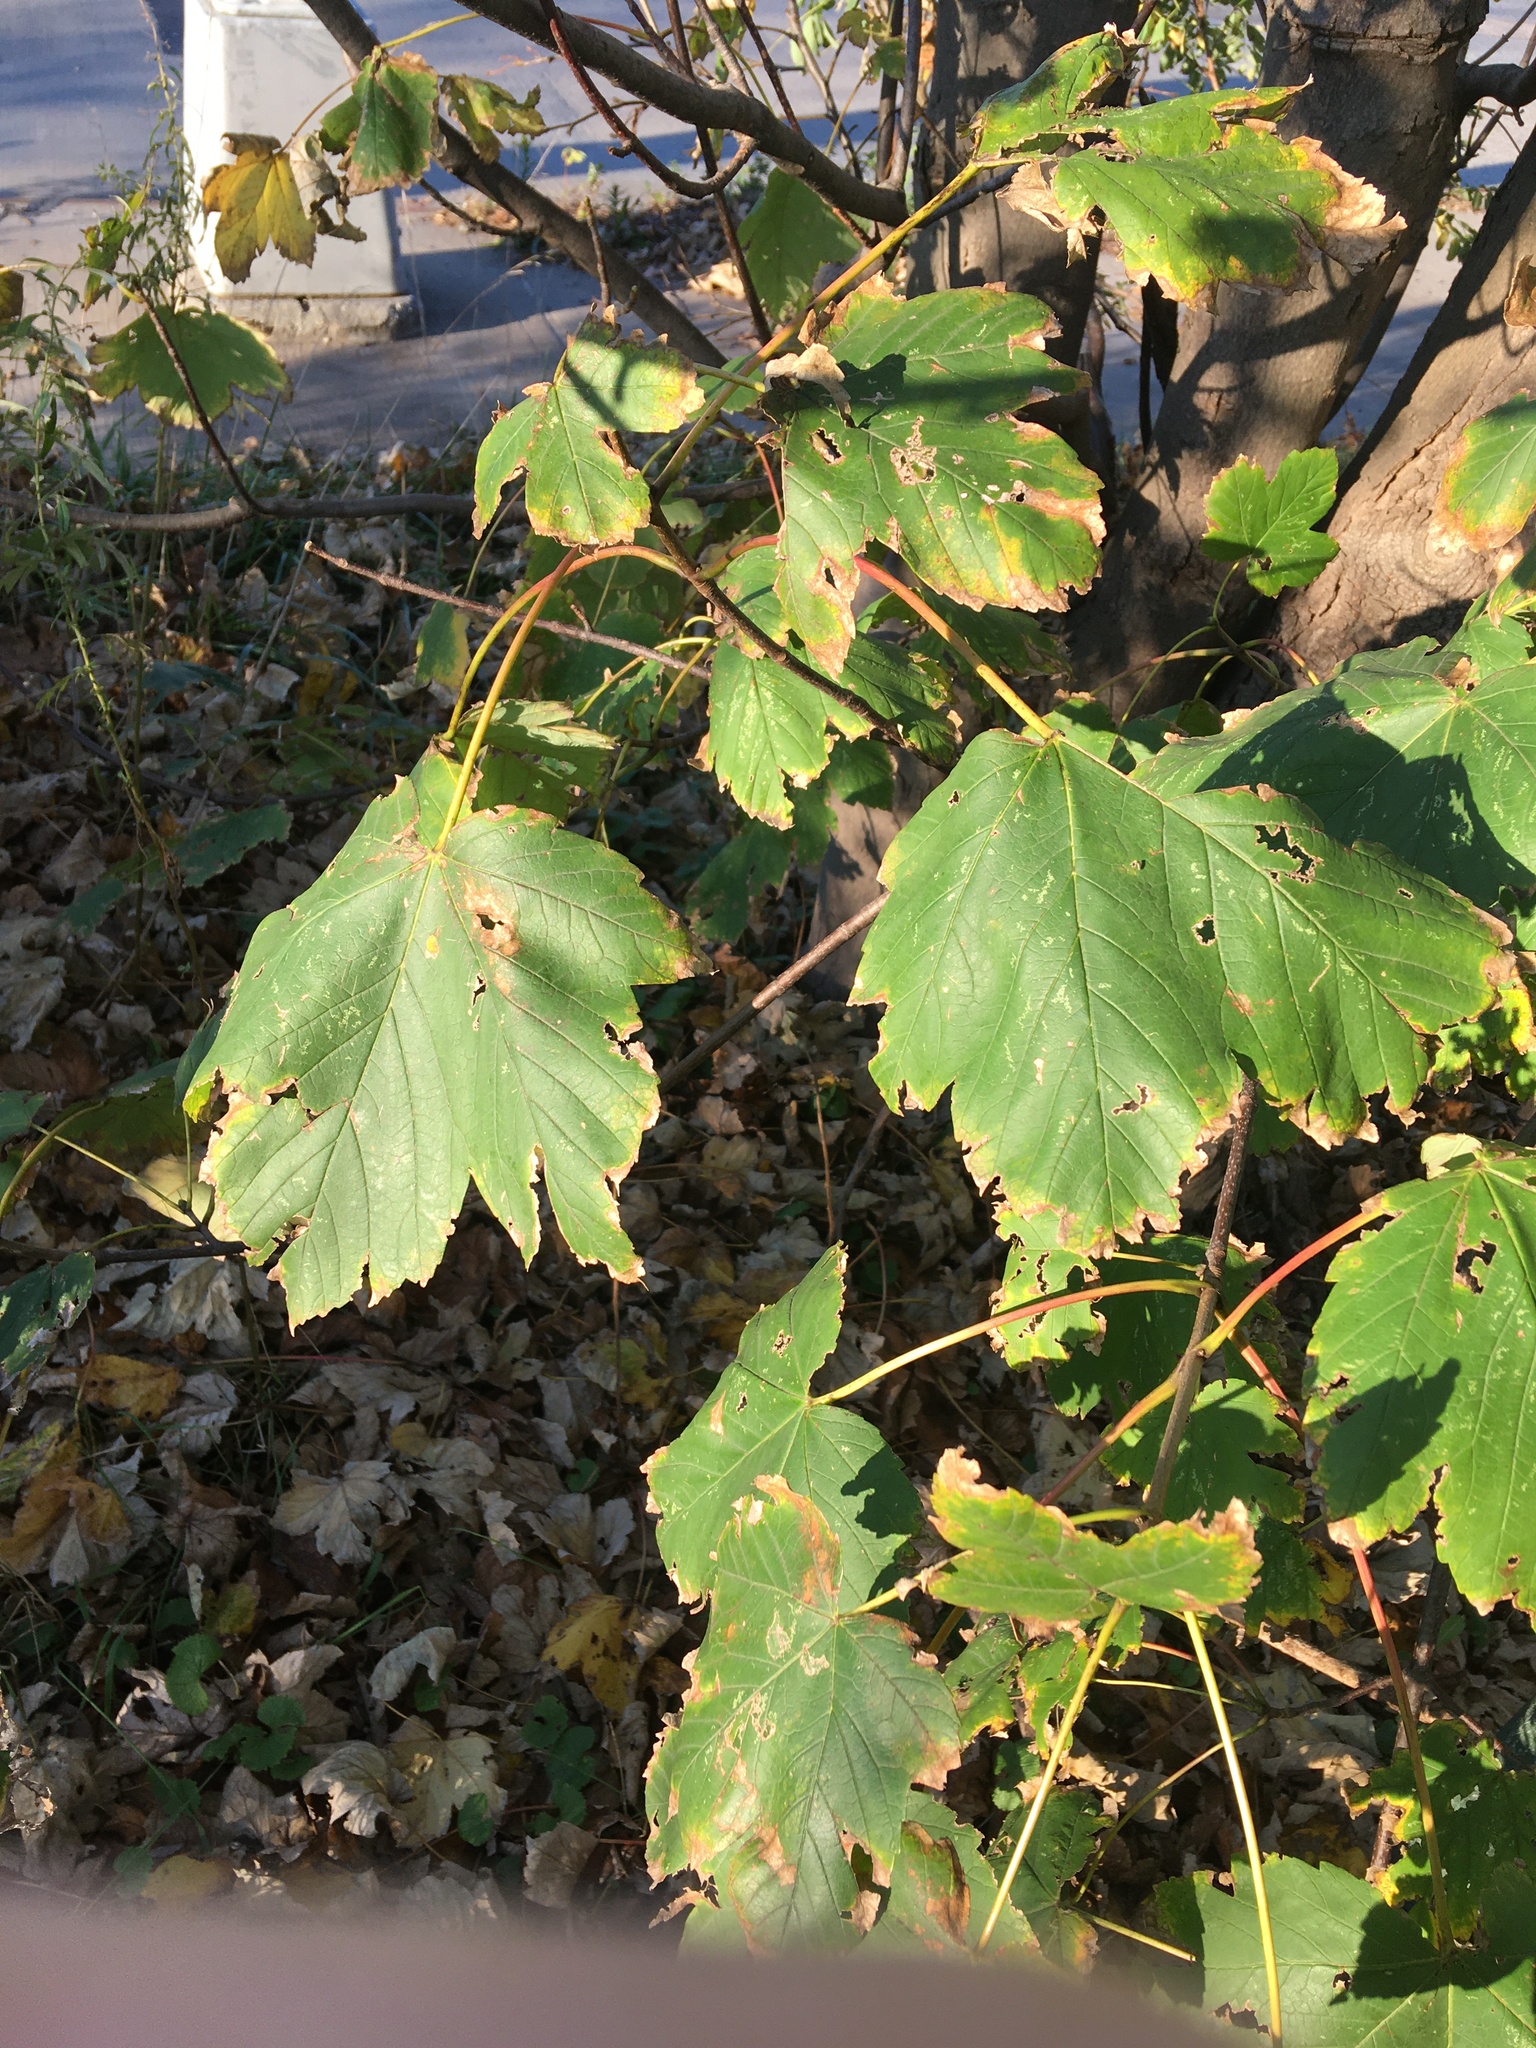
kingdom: Plantae
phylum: Tracheophyta
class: Magnoliopsida
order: Sapindales
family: Sapindaceae
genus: Acer
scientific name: Acer pseudoplatanus
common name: Sycamore
